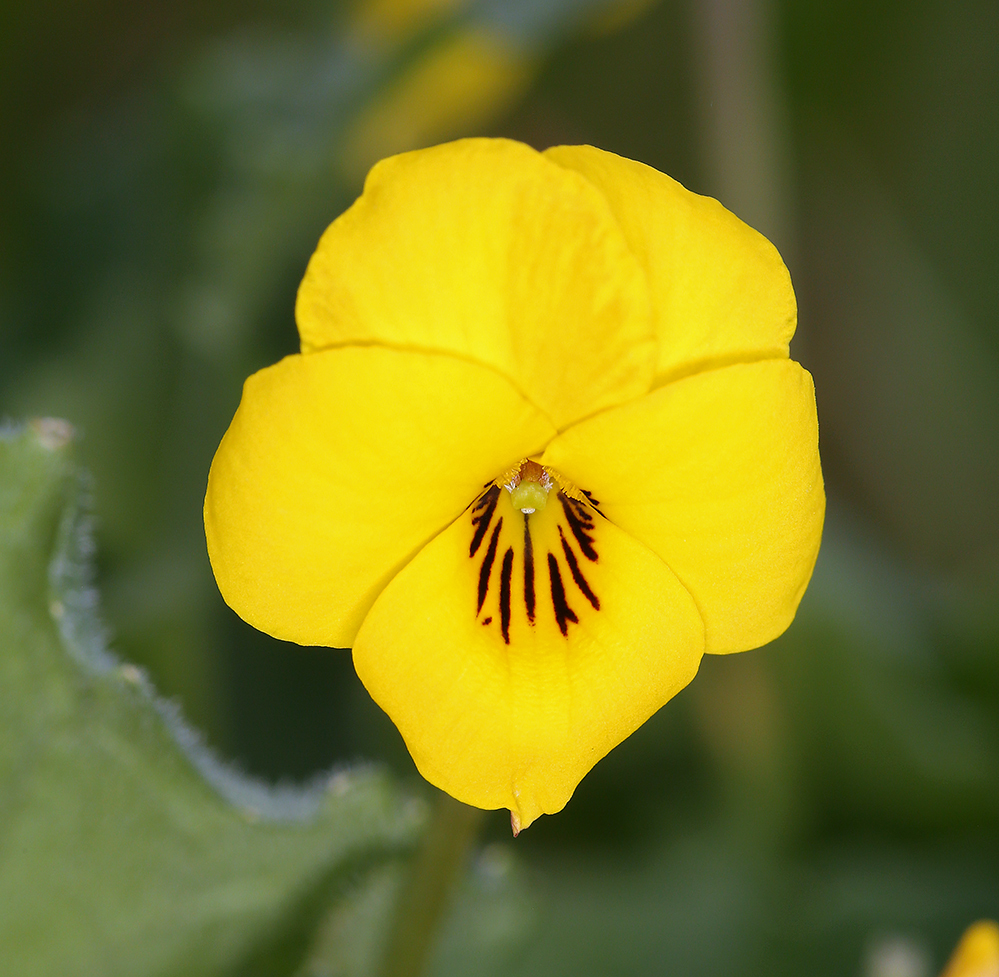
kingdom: Plantae
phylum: Tracheophyta
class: Magnoliopsida
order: Malpighiales
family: Violaceae
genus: Viola
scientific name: Viola pedunculata
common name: California golden violet
